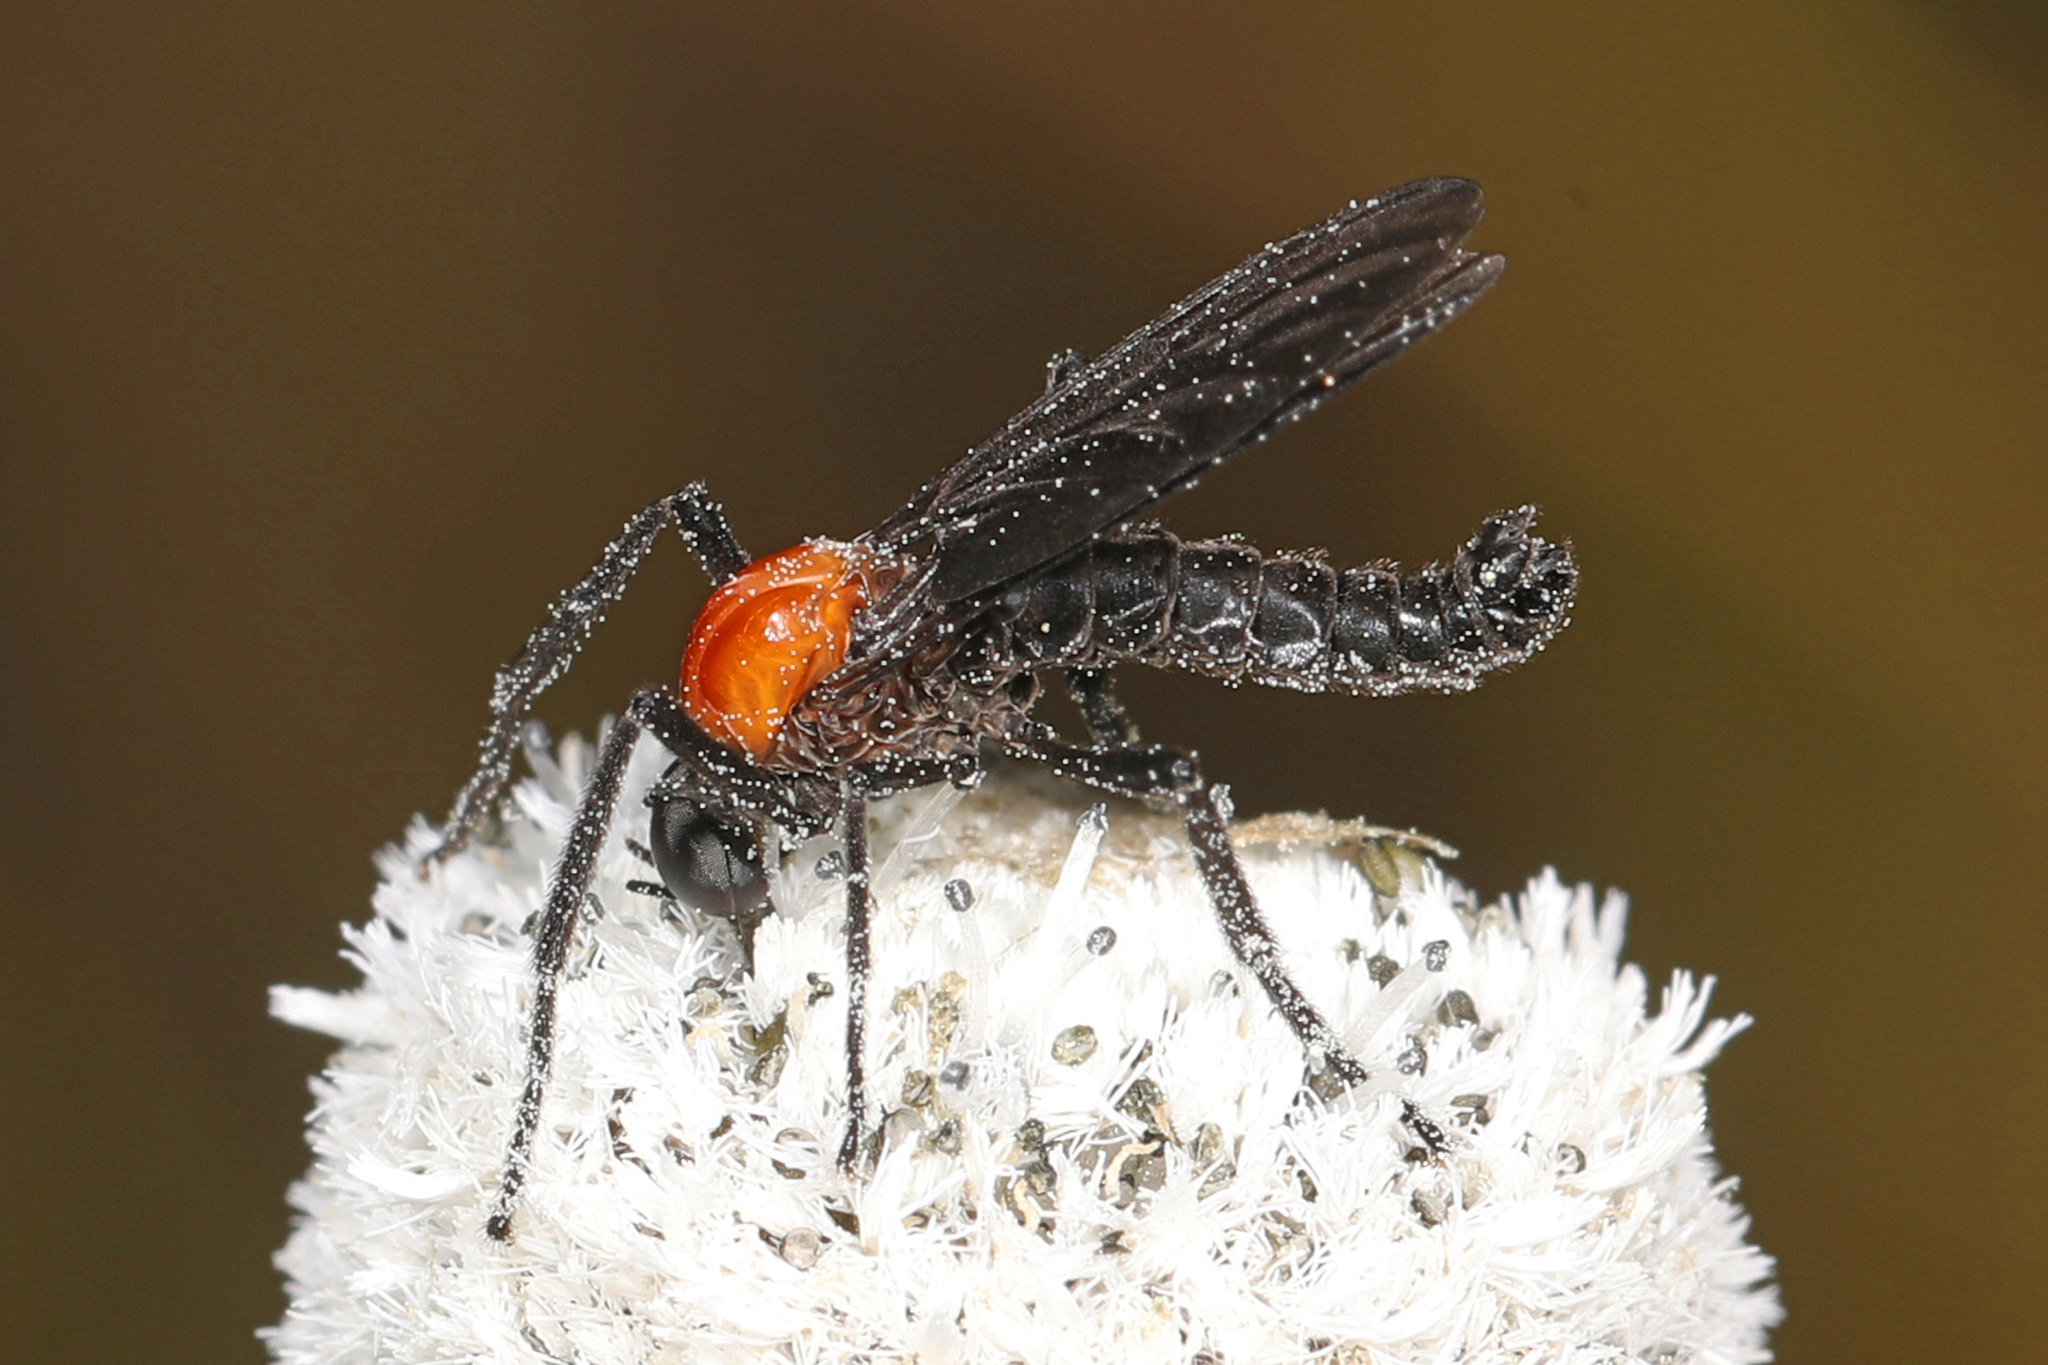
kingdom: Animalia
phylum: Arthropoda
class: Insecta
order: Diptera
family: Bibionidae
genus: Plecia
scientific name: Plecia nearctica
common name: March fly
